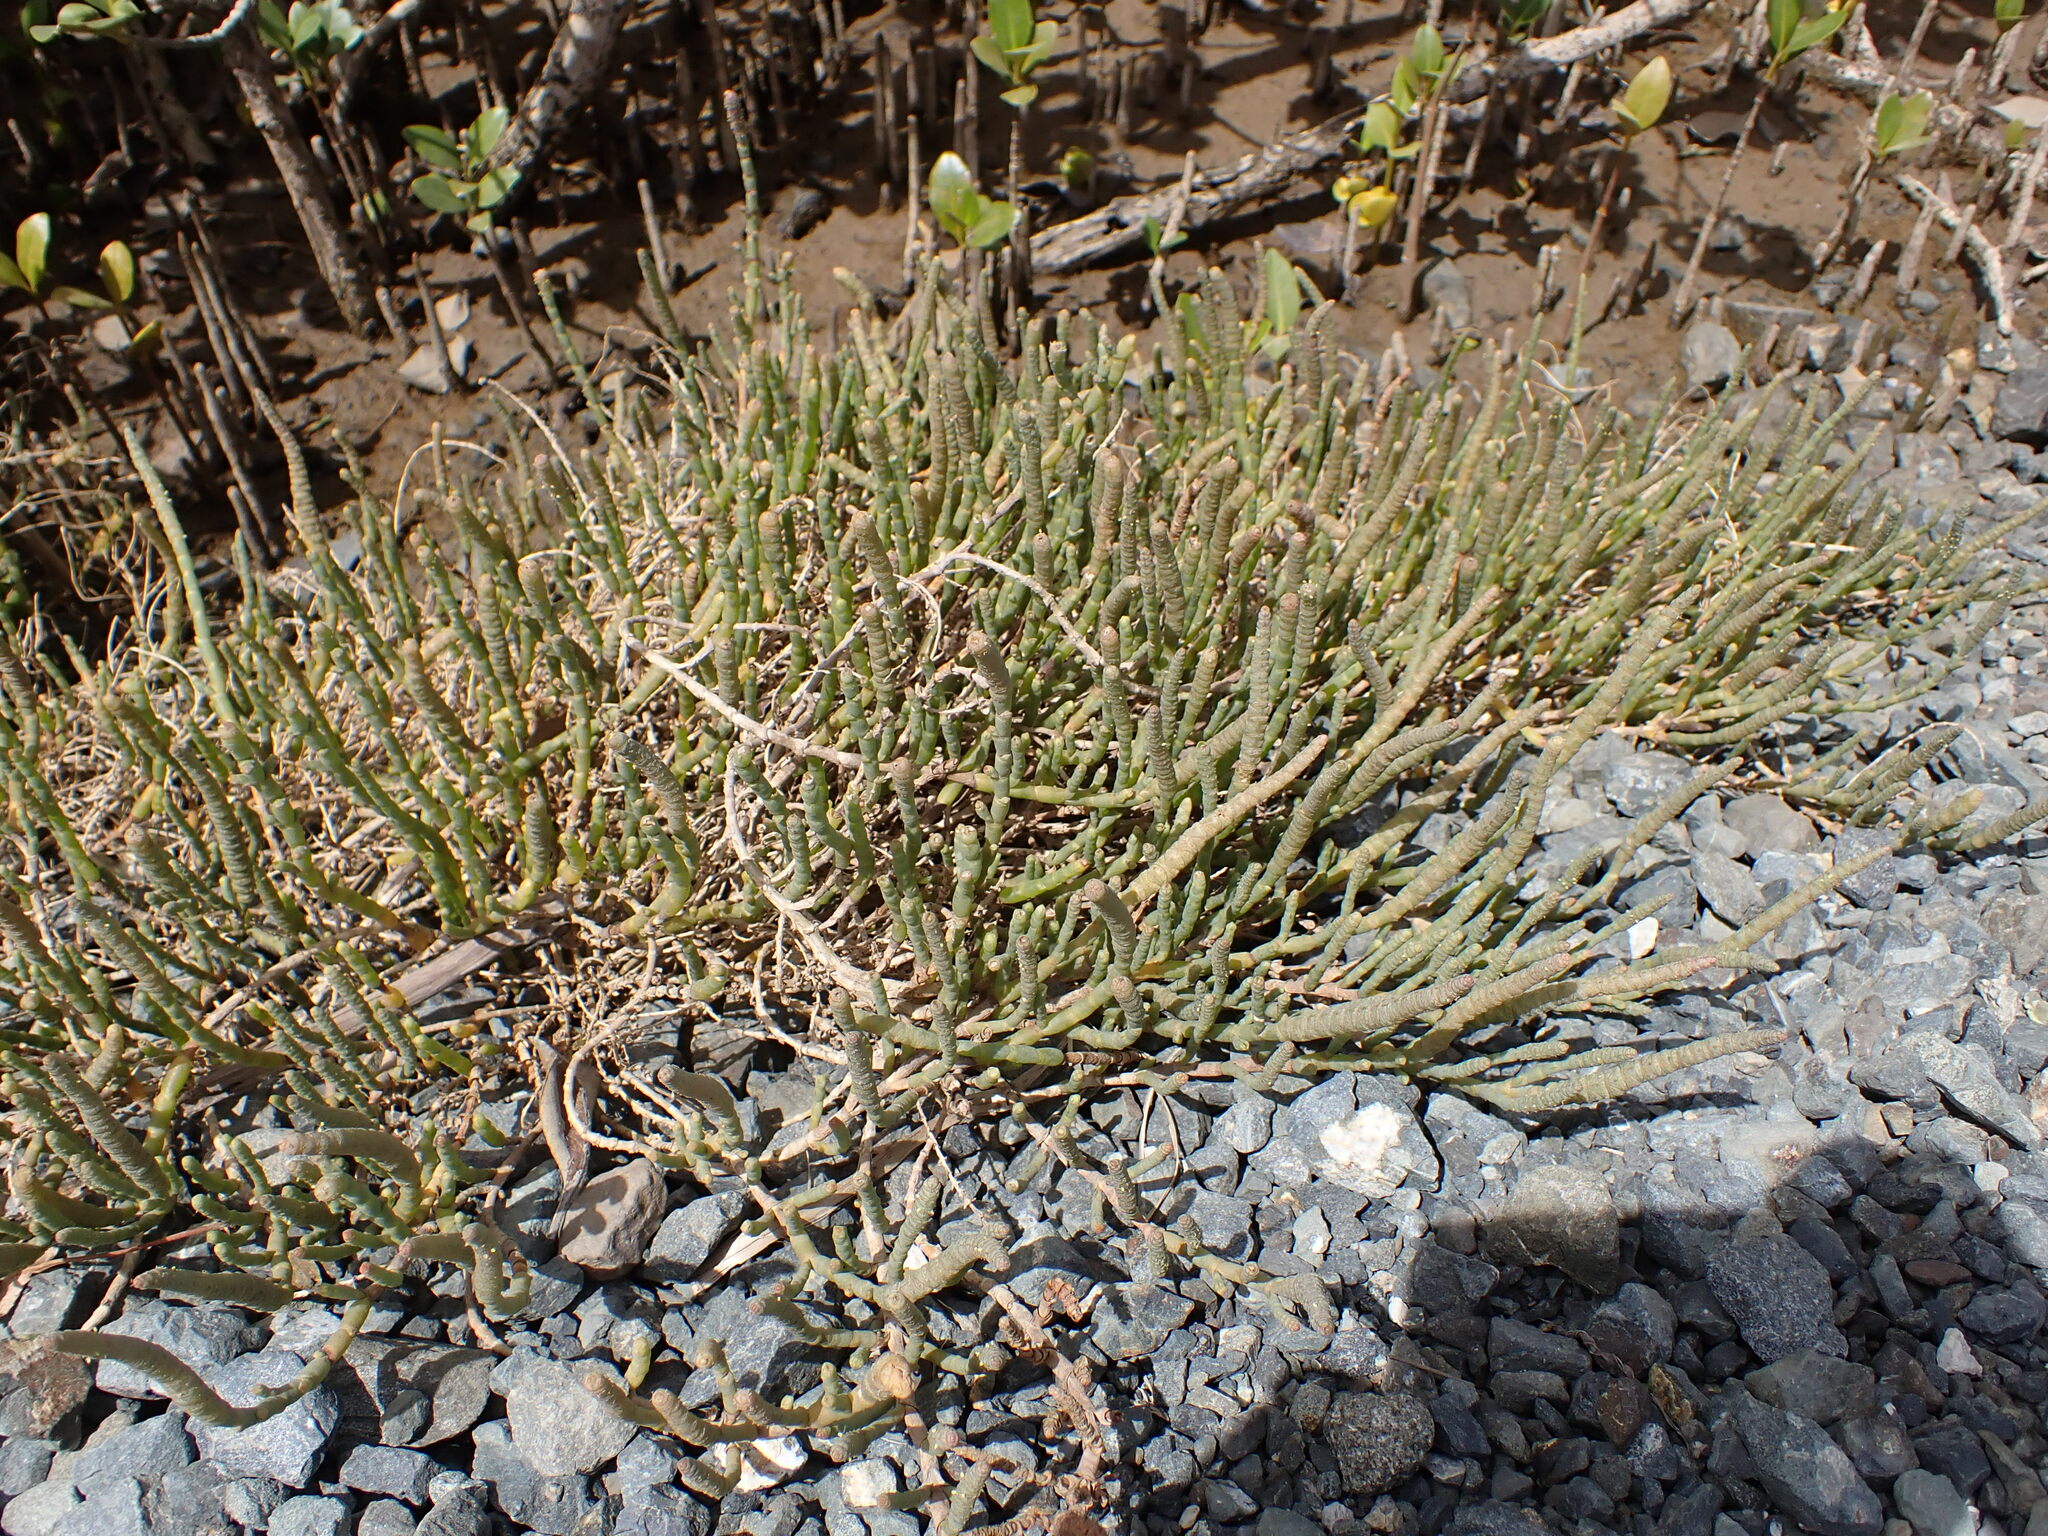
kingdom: Plantae
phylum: Tracheophyta
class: Magnoliopsida
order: Caryophyllales
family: Amaranthaceae
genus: Salicornia
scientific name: Salicornia quinqueflora
